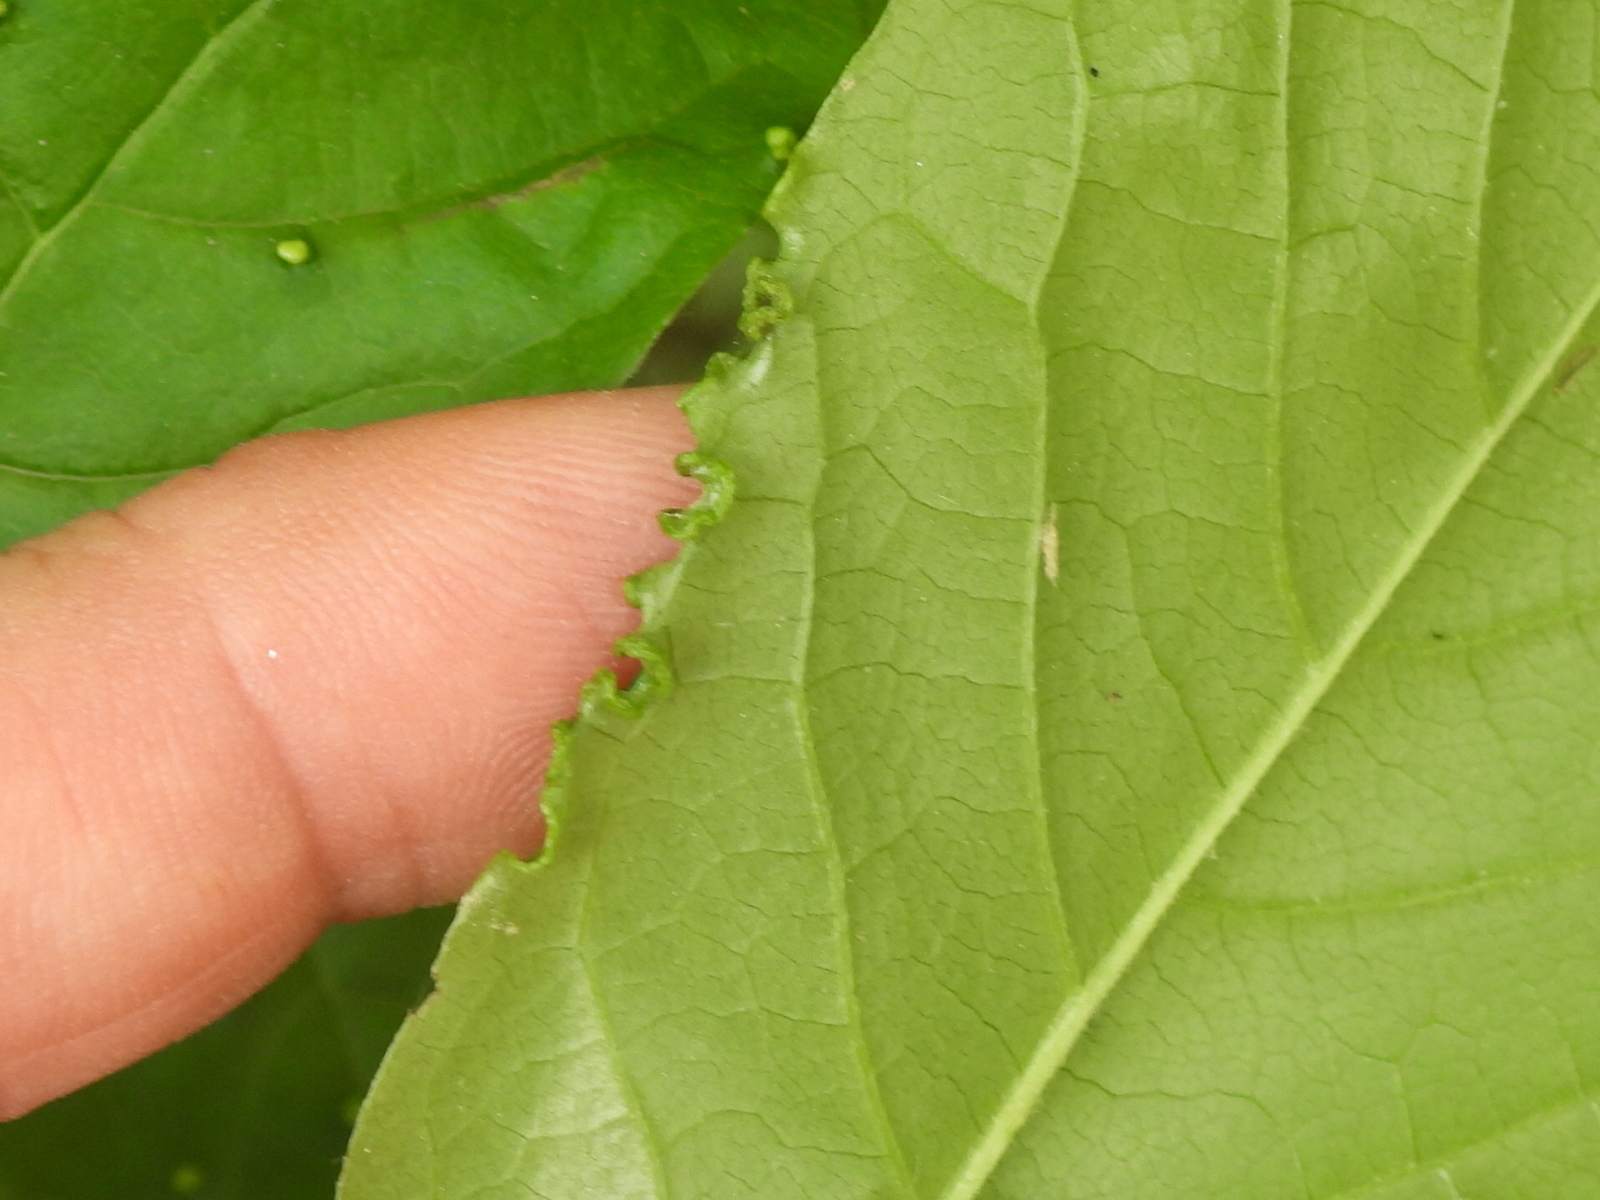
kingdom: Animalia
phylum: Arthropoda
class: Arachnida
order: Trombidiformes
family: Eriophyidae
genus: Aceria
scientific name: Aceria
